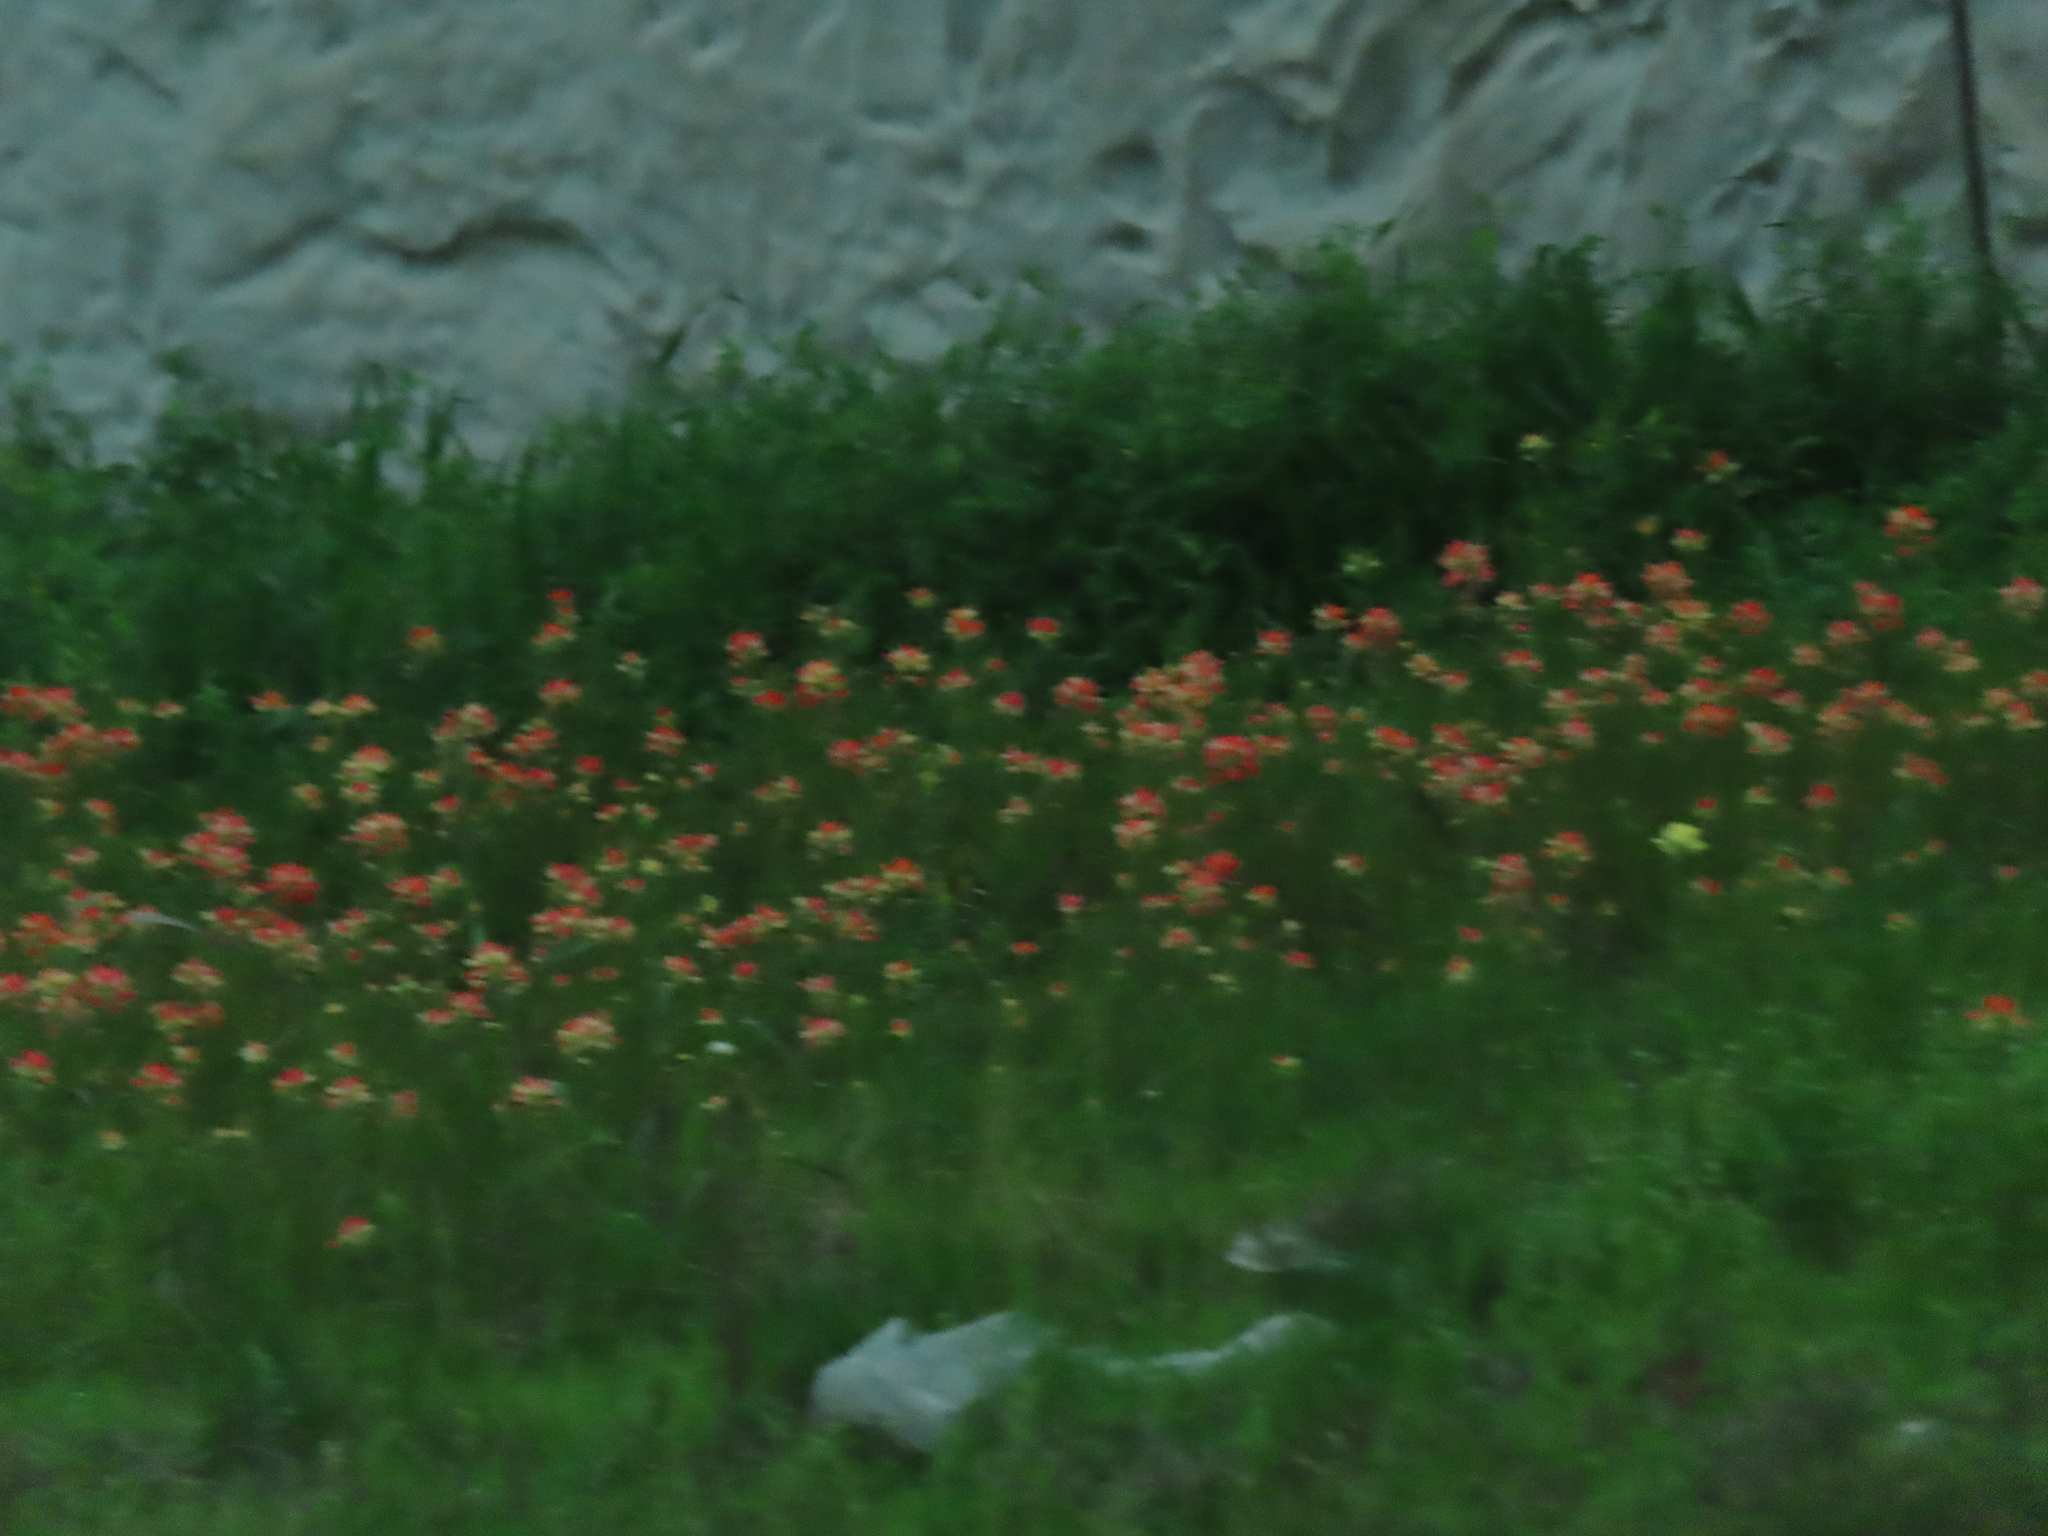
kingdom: Plantae
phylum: Tracheophyta
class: Magnoliopsida
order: Lamiales
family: Orobanchaceae
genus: Castilleja
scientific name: Castilleja indivisa
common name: Texas paintbrush
